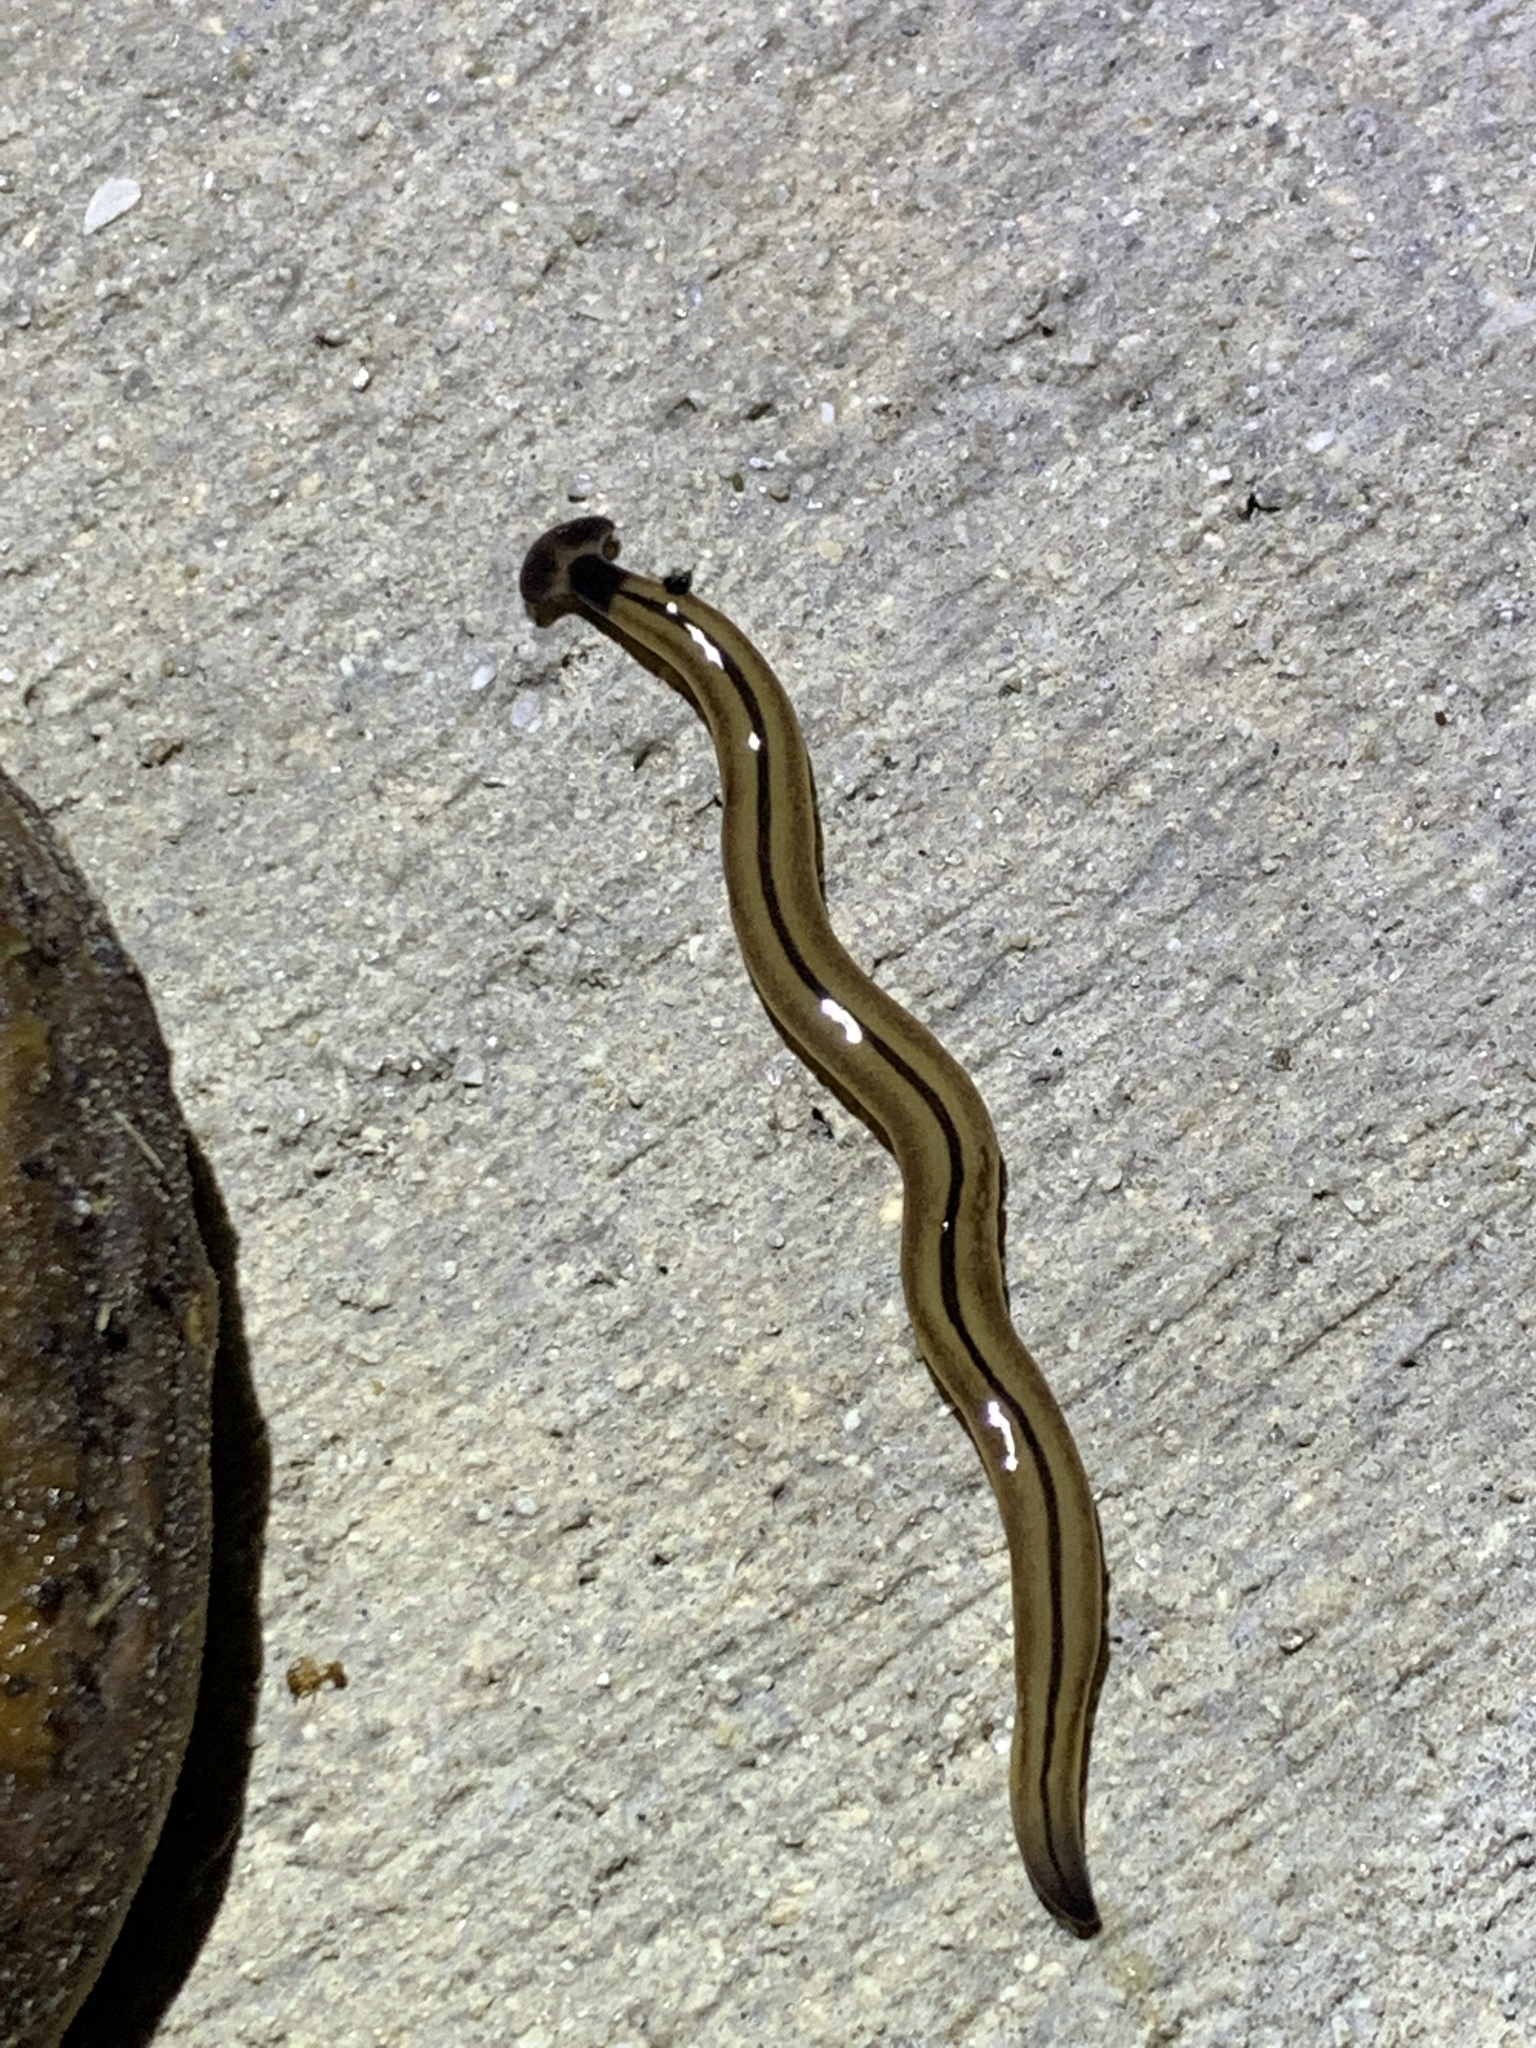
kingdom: Animalia
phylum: Platyhelminthes
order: Tricladida
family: Geoplanidae
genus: Bipalium
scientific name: Bipalium vagum
